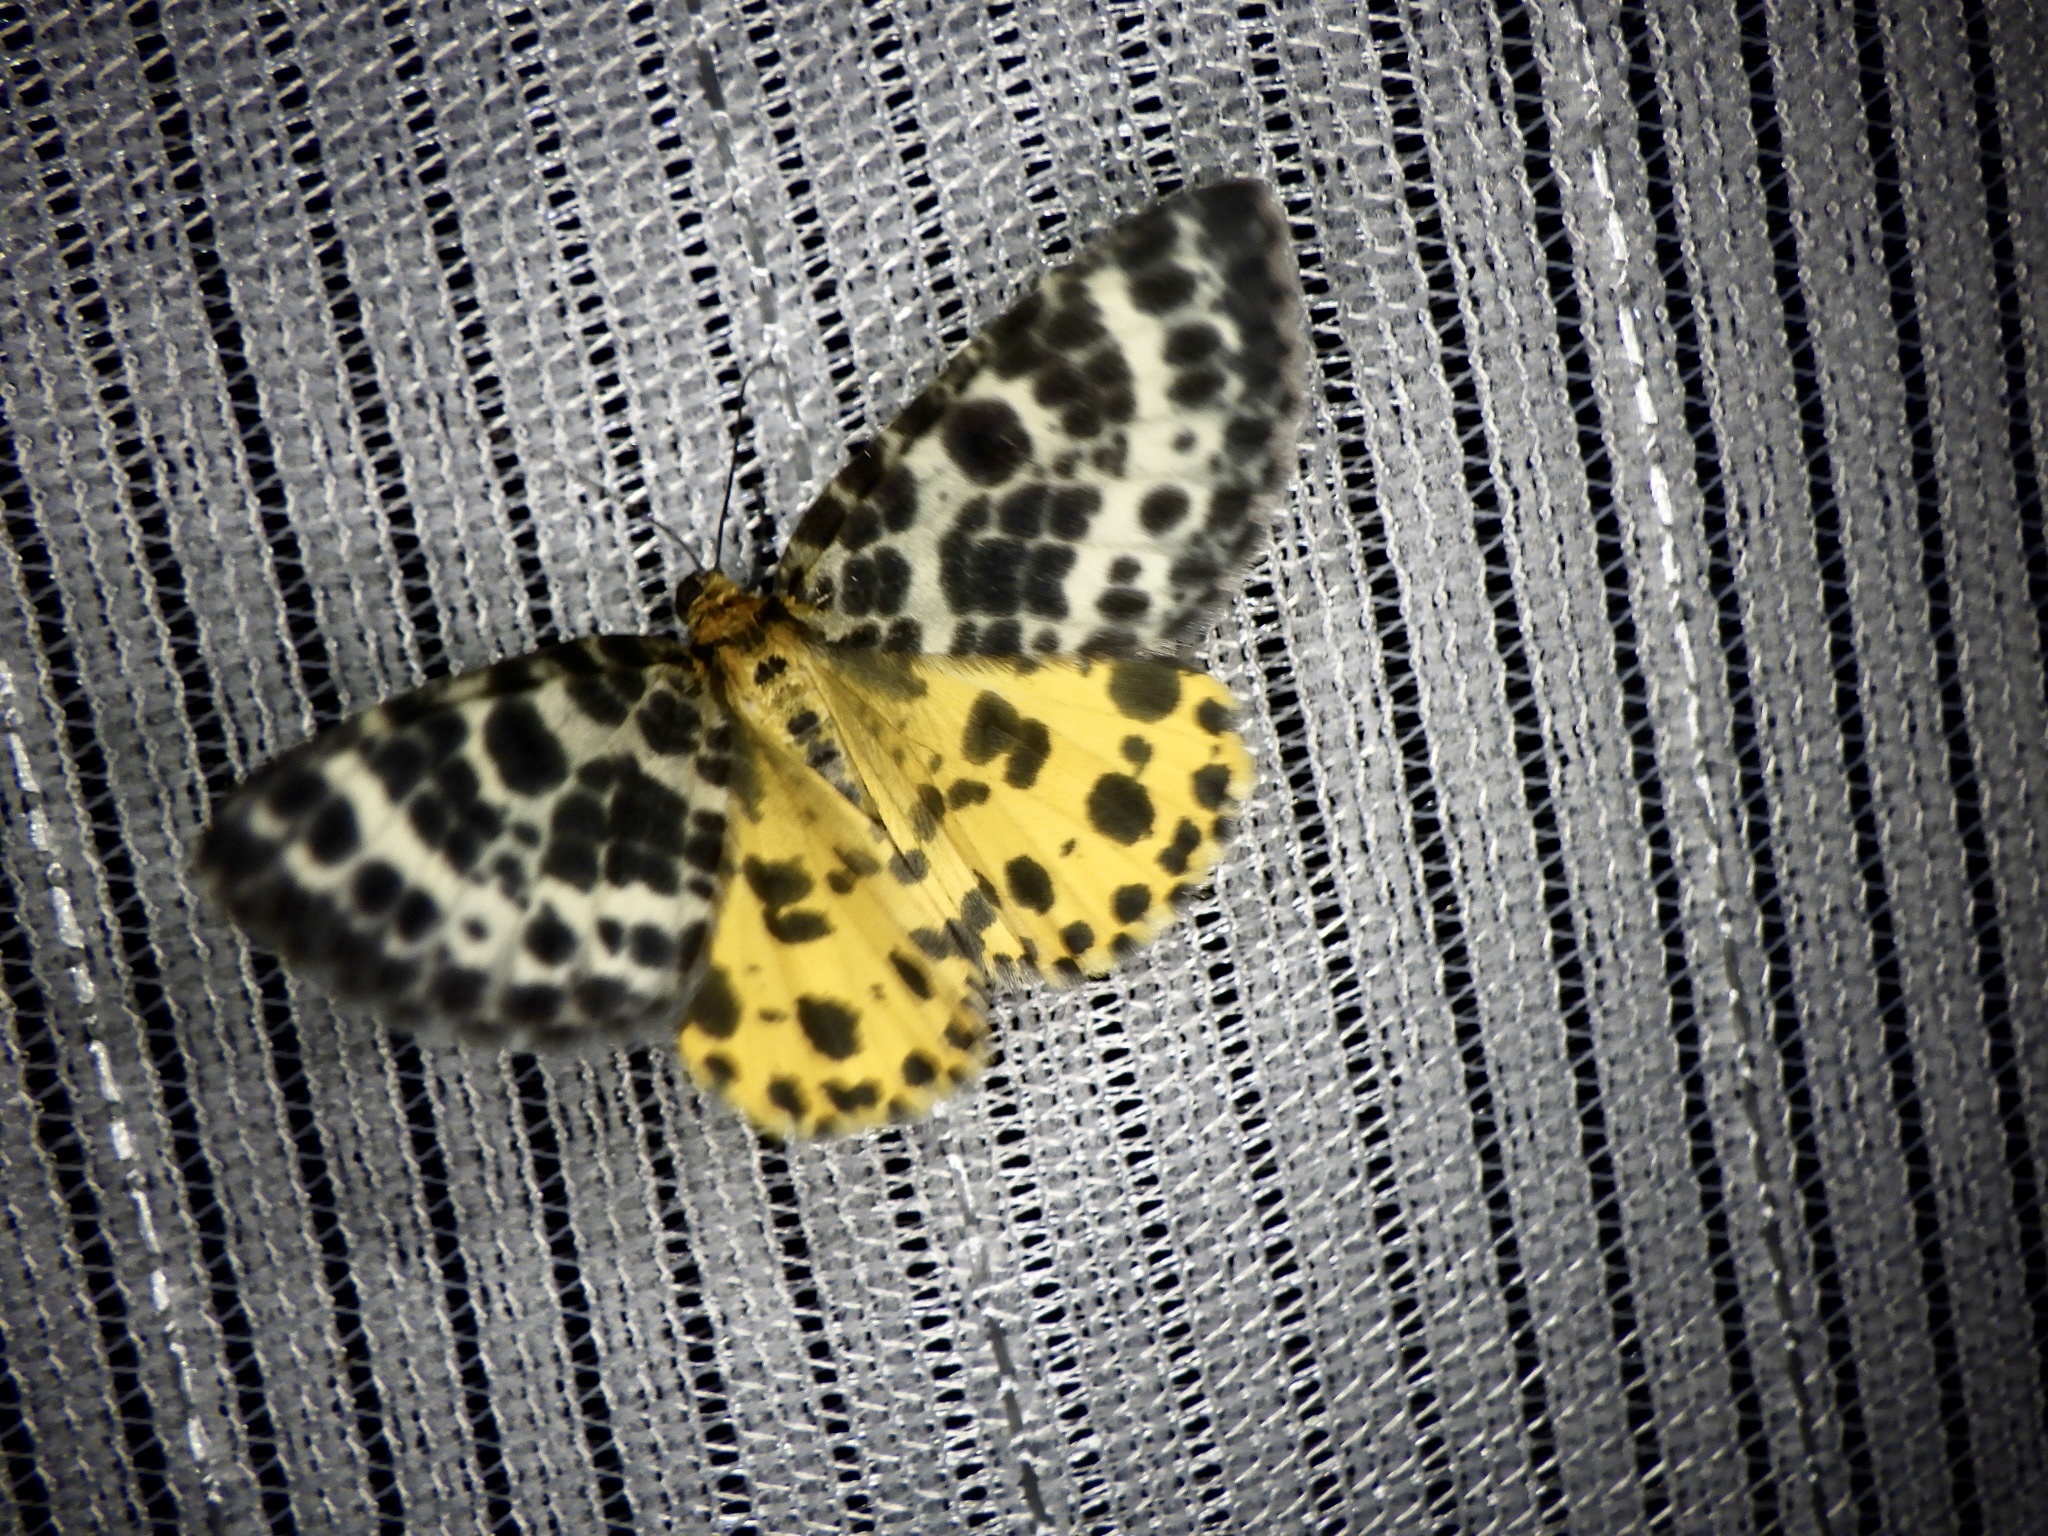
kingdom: Animalia
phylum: Arthropoda
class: Insecta
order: Lepidoptera
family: Geometridae
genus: Arichanna
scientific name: Arichanna melanaria
